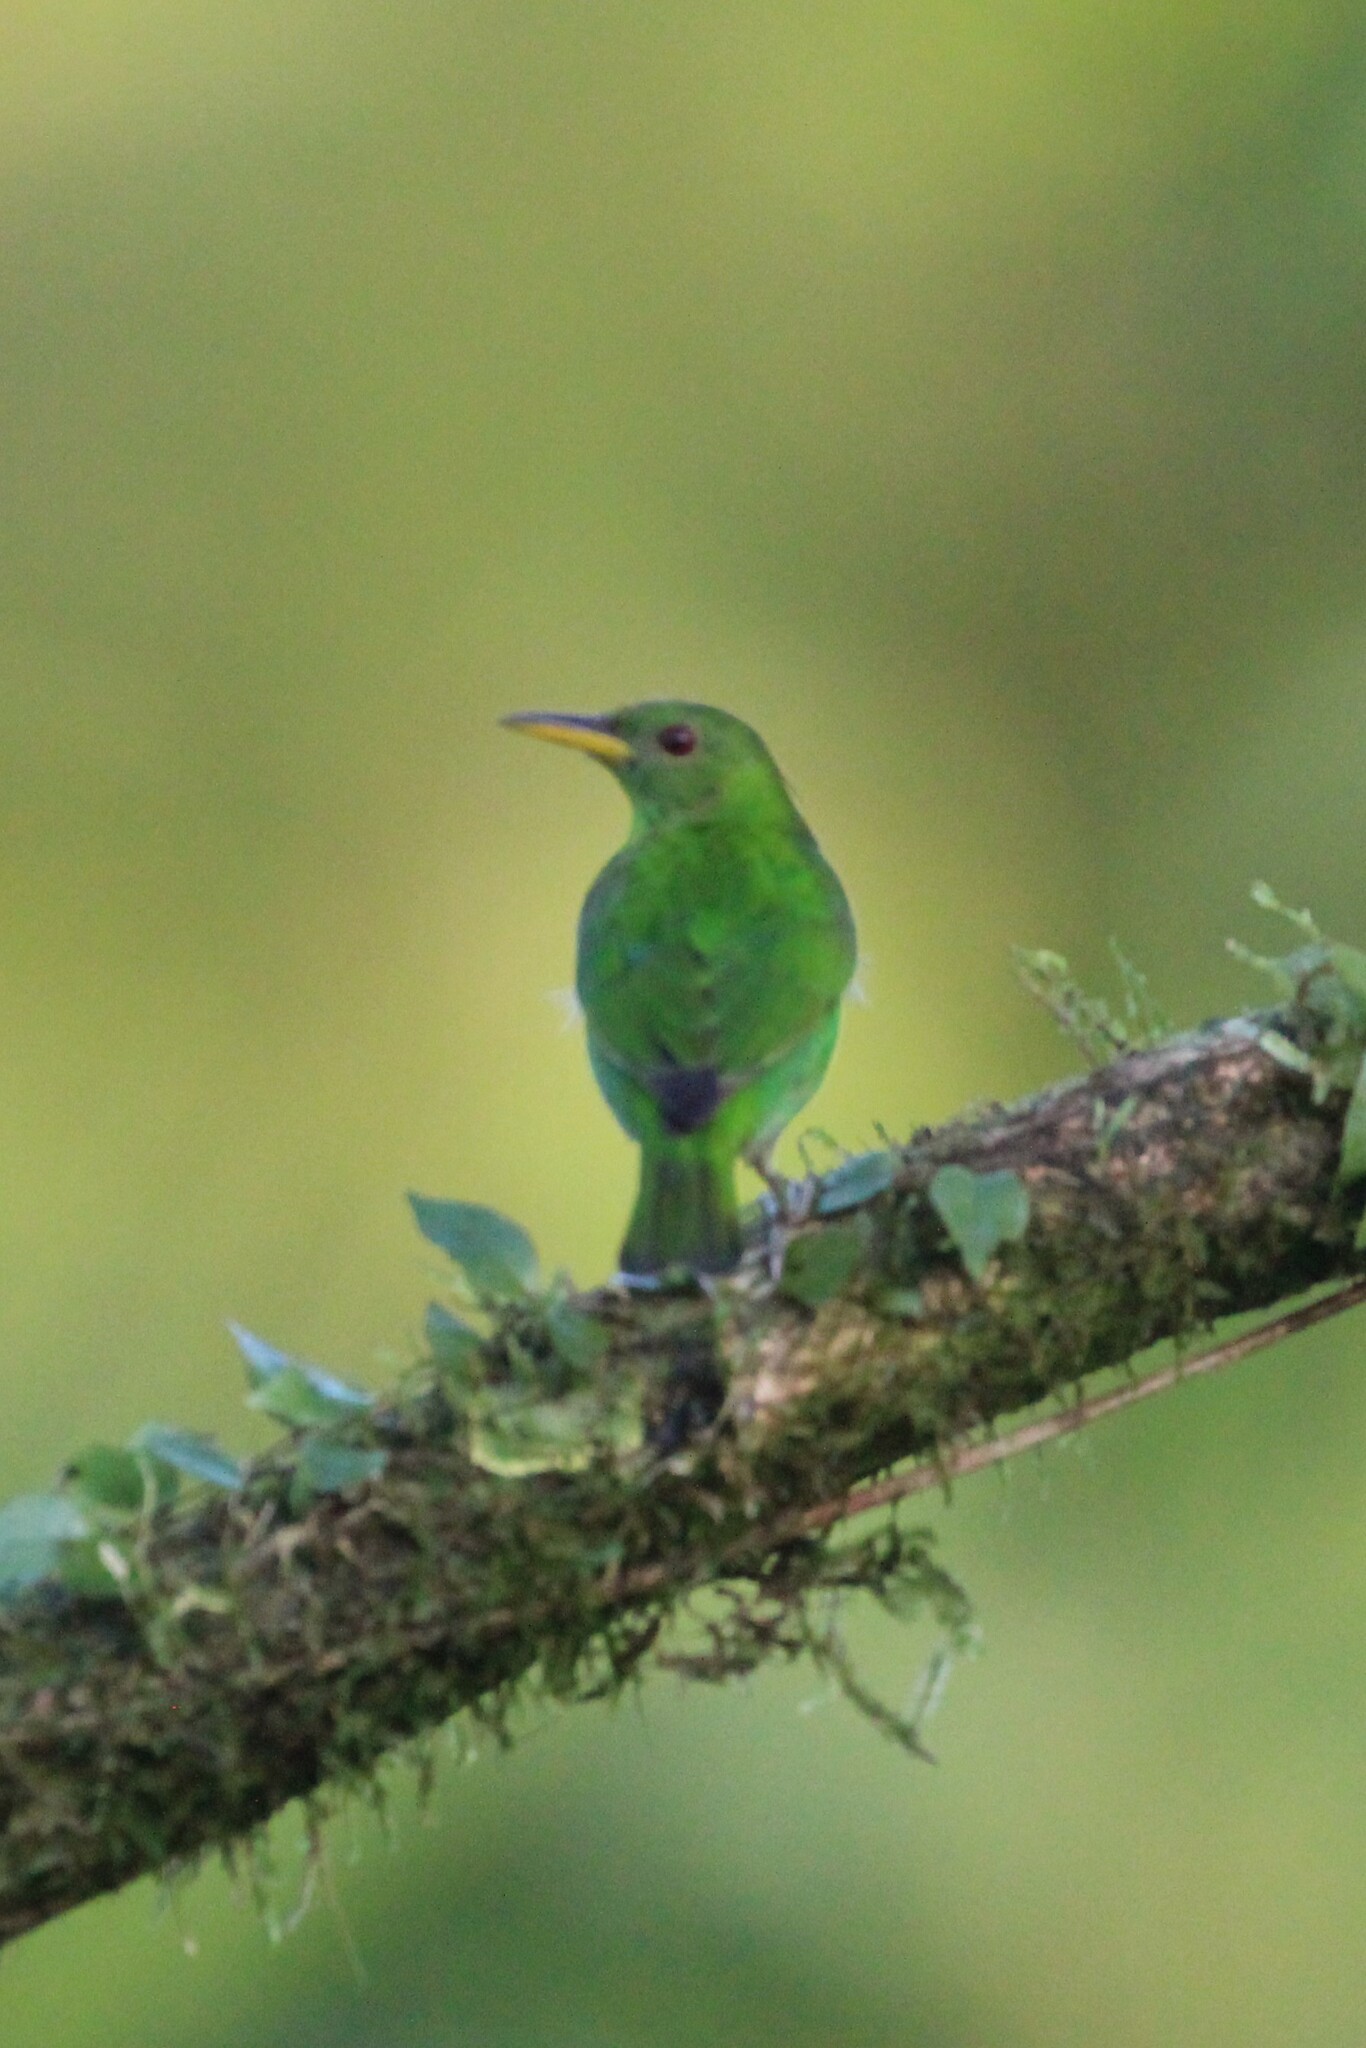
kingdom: Animalia
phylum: Chordata
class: Aves
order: Passeriformes
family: Thraupidae
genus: Chlorophanes
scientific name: Chlorophanes spiza
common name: Green honeycreeper
